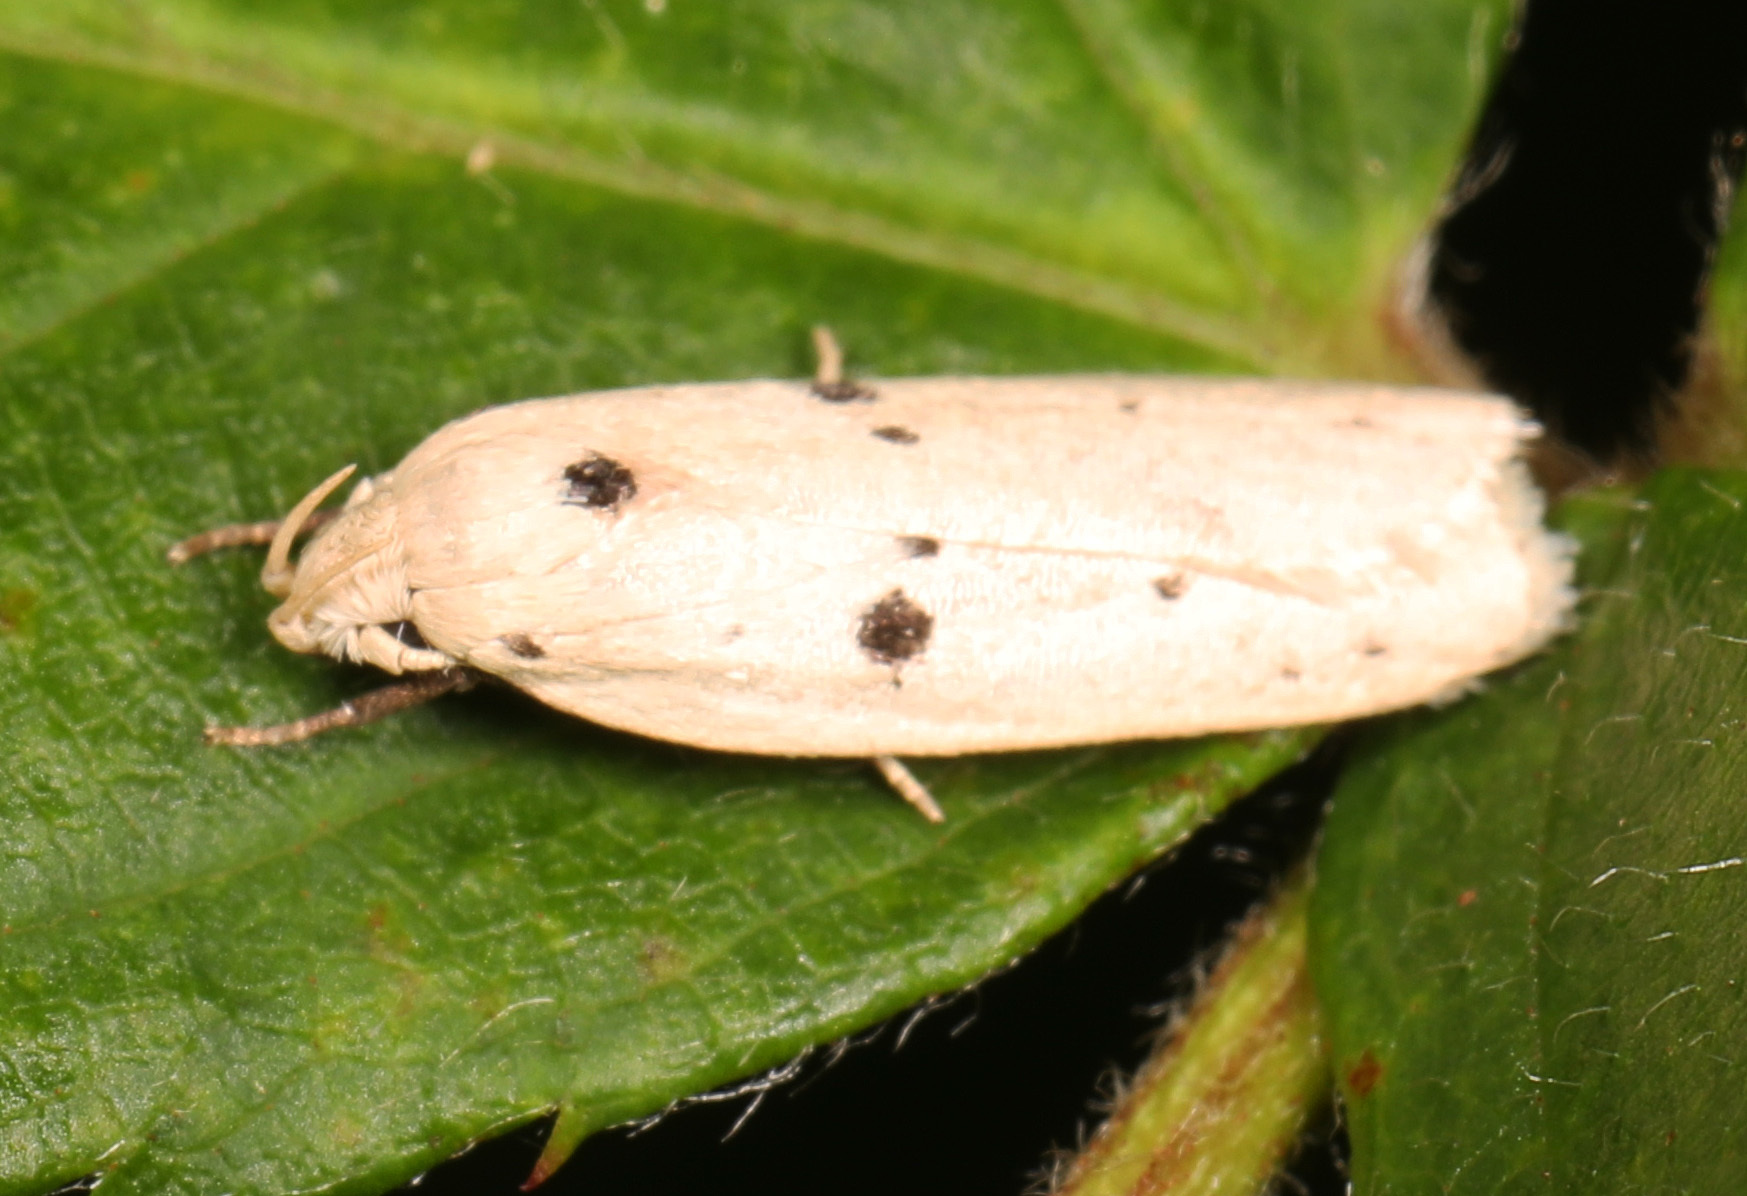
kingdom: Animalia
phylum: Arthropoda
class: Insecta
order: Lepidoptera
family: Peleopodidae
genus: Scythropiodes
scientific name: Scythropiodes issikii
